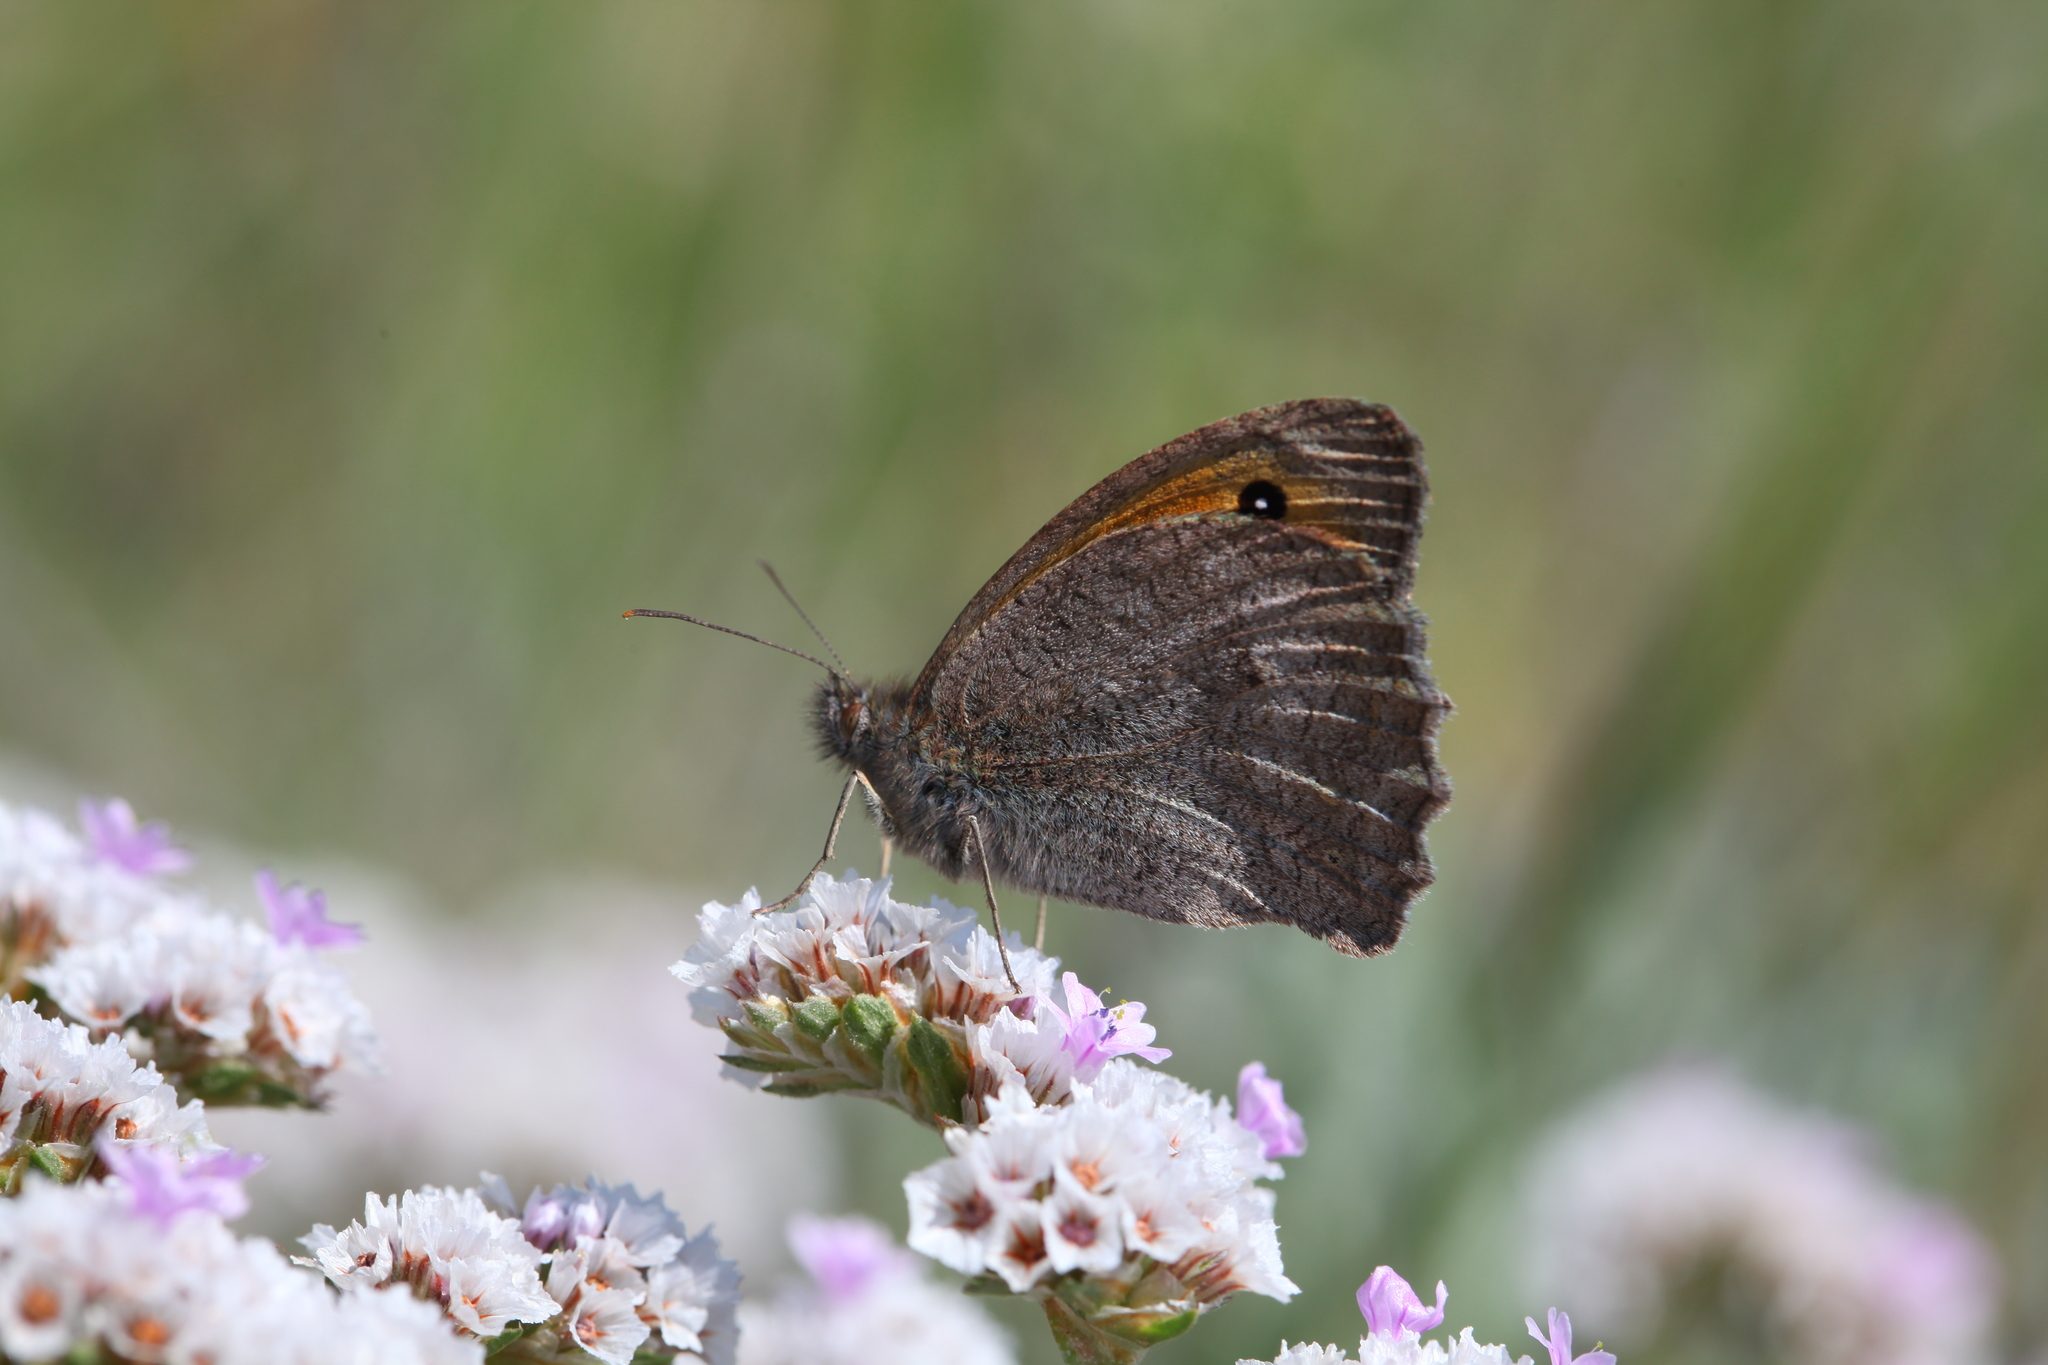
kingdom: Animalia
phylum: Arthropoda
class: Insecta
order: Lepidoptera
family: Nymphalidae
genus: Hyponephele
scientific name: Hyponephele lupinus
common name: Oriental meadow brown
